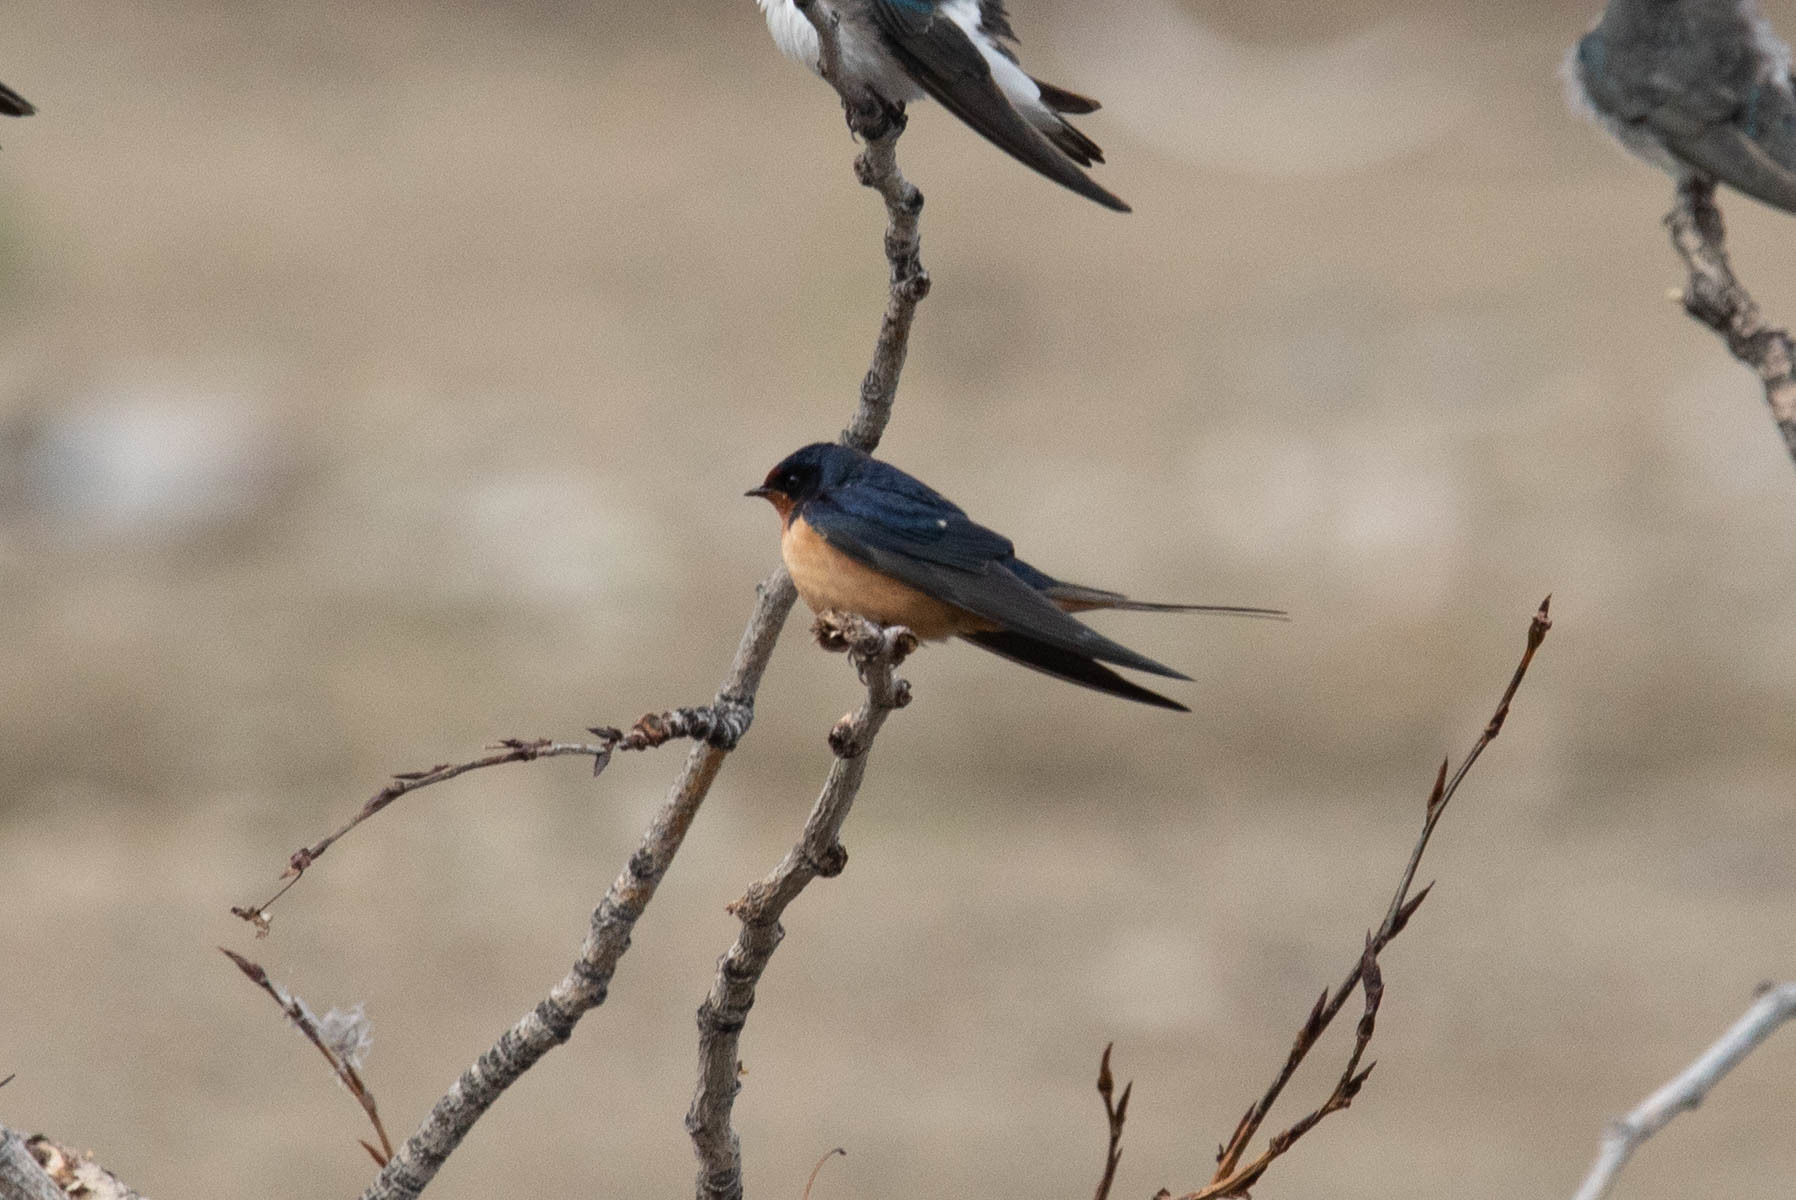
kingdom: Animalia
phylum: Chordata
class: Aves
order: Passeriformes
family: Hirundinidae
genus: Hirundo
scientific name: Hirundo rustica
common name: Barn swallow
